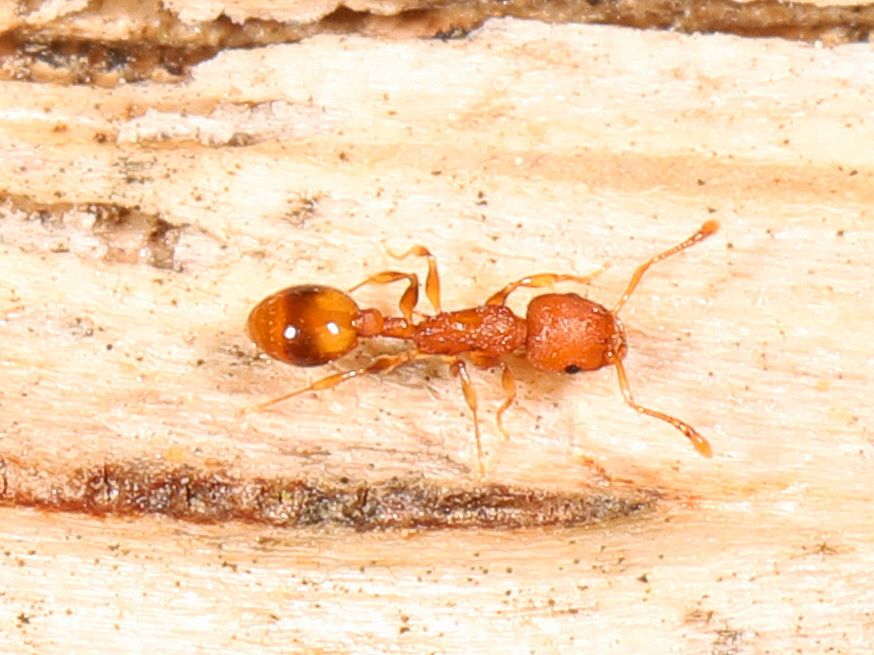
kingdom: Animalia
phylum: Arthropoda
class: Insecta
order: Hymenoptera
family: Formicidae
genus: Temnothorax
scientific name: Temnothorax curvispinosus
